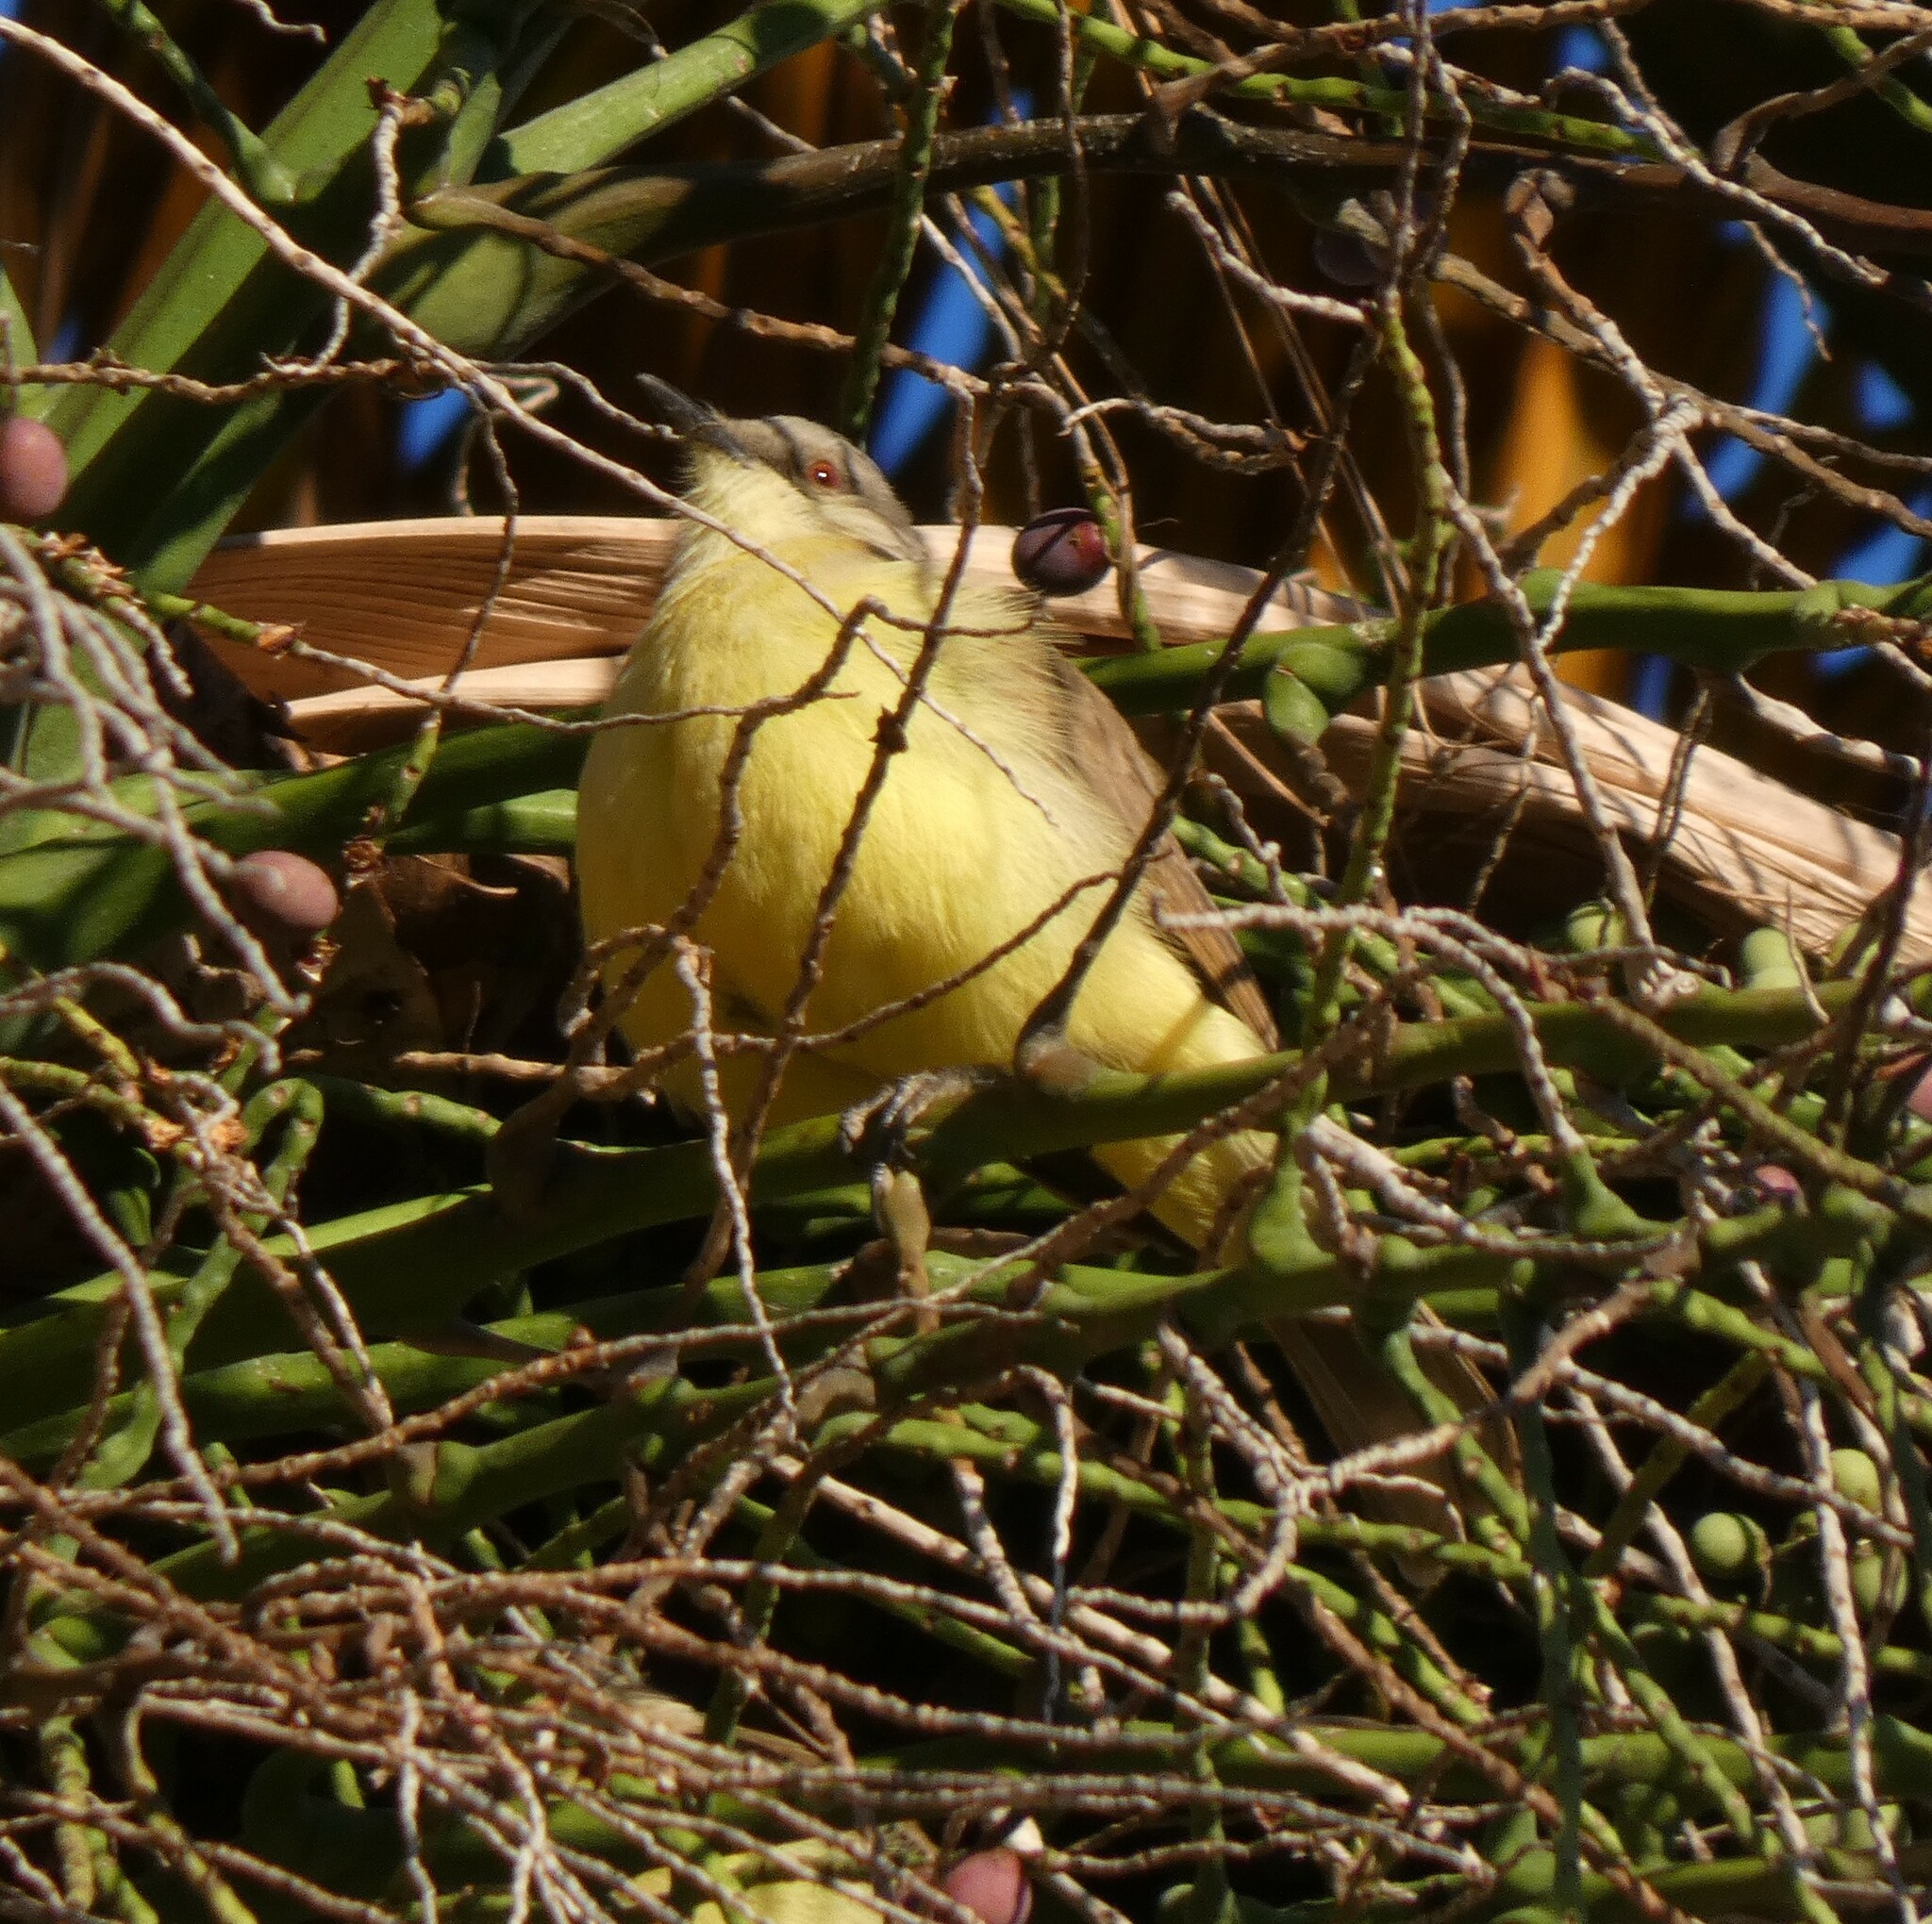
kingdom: Animalia
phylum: Chordata
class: Aves
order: Passeriformes
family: Tyrannidae
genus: Machetornis
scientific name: Machetornis rixosa
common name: Cattle tyrant
